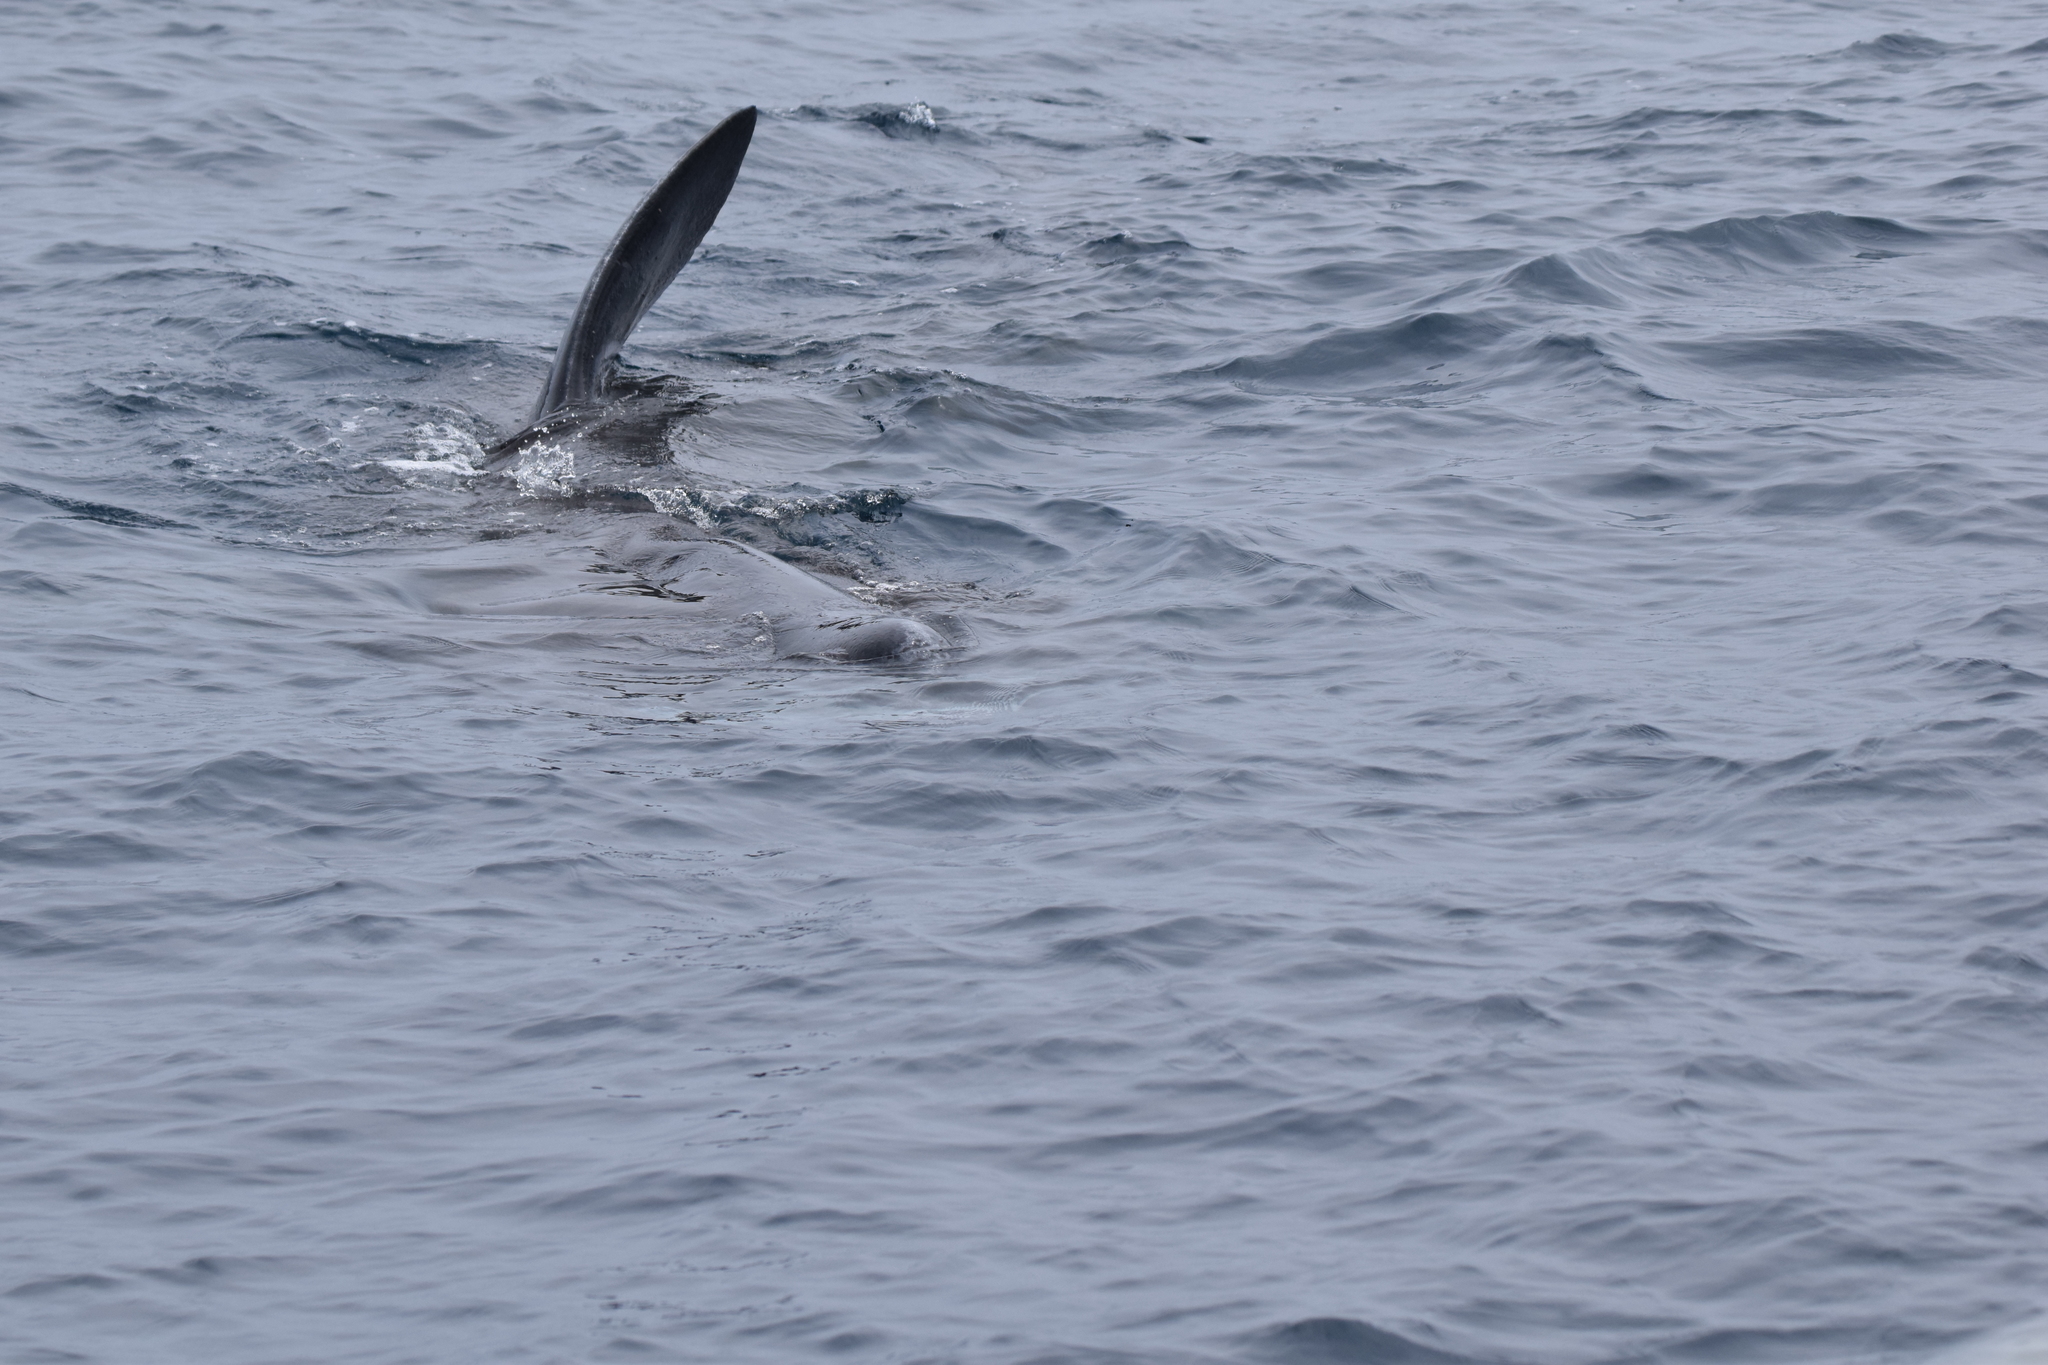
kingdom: Animalia
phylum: Chordata
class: Elasmobranchii
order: Lamniformes
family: Cetorhinidae
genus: Cetorhinus
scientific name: Cetorhinus maximus
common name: Basking shark
